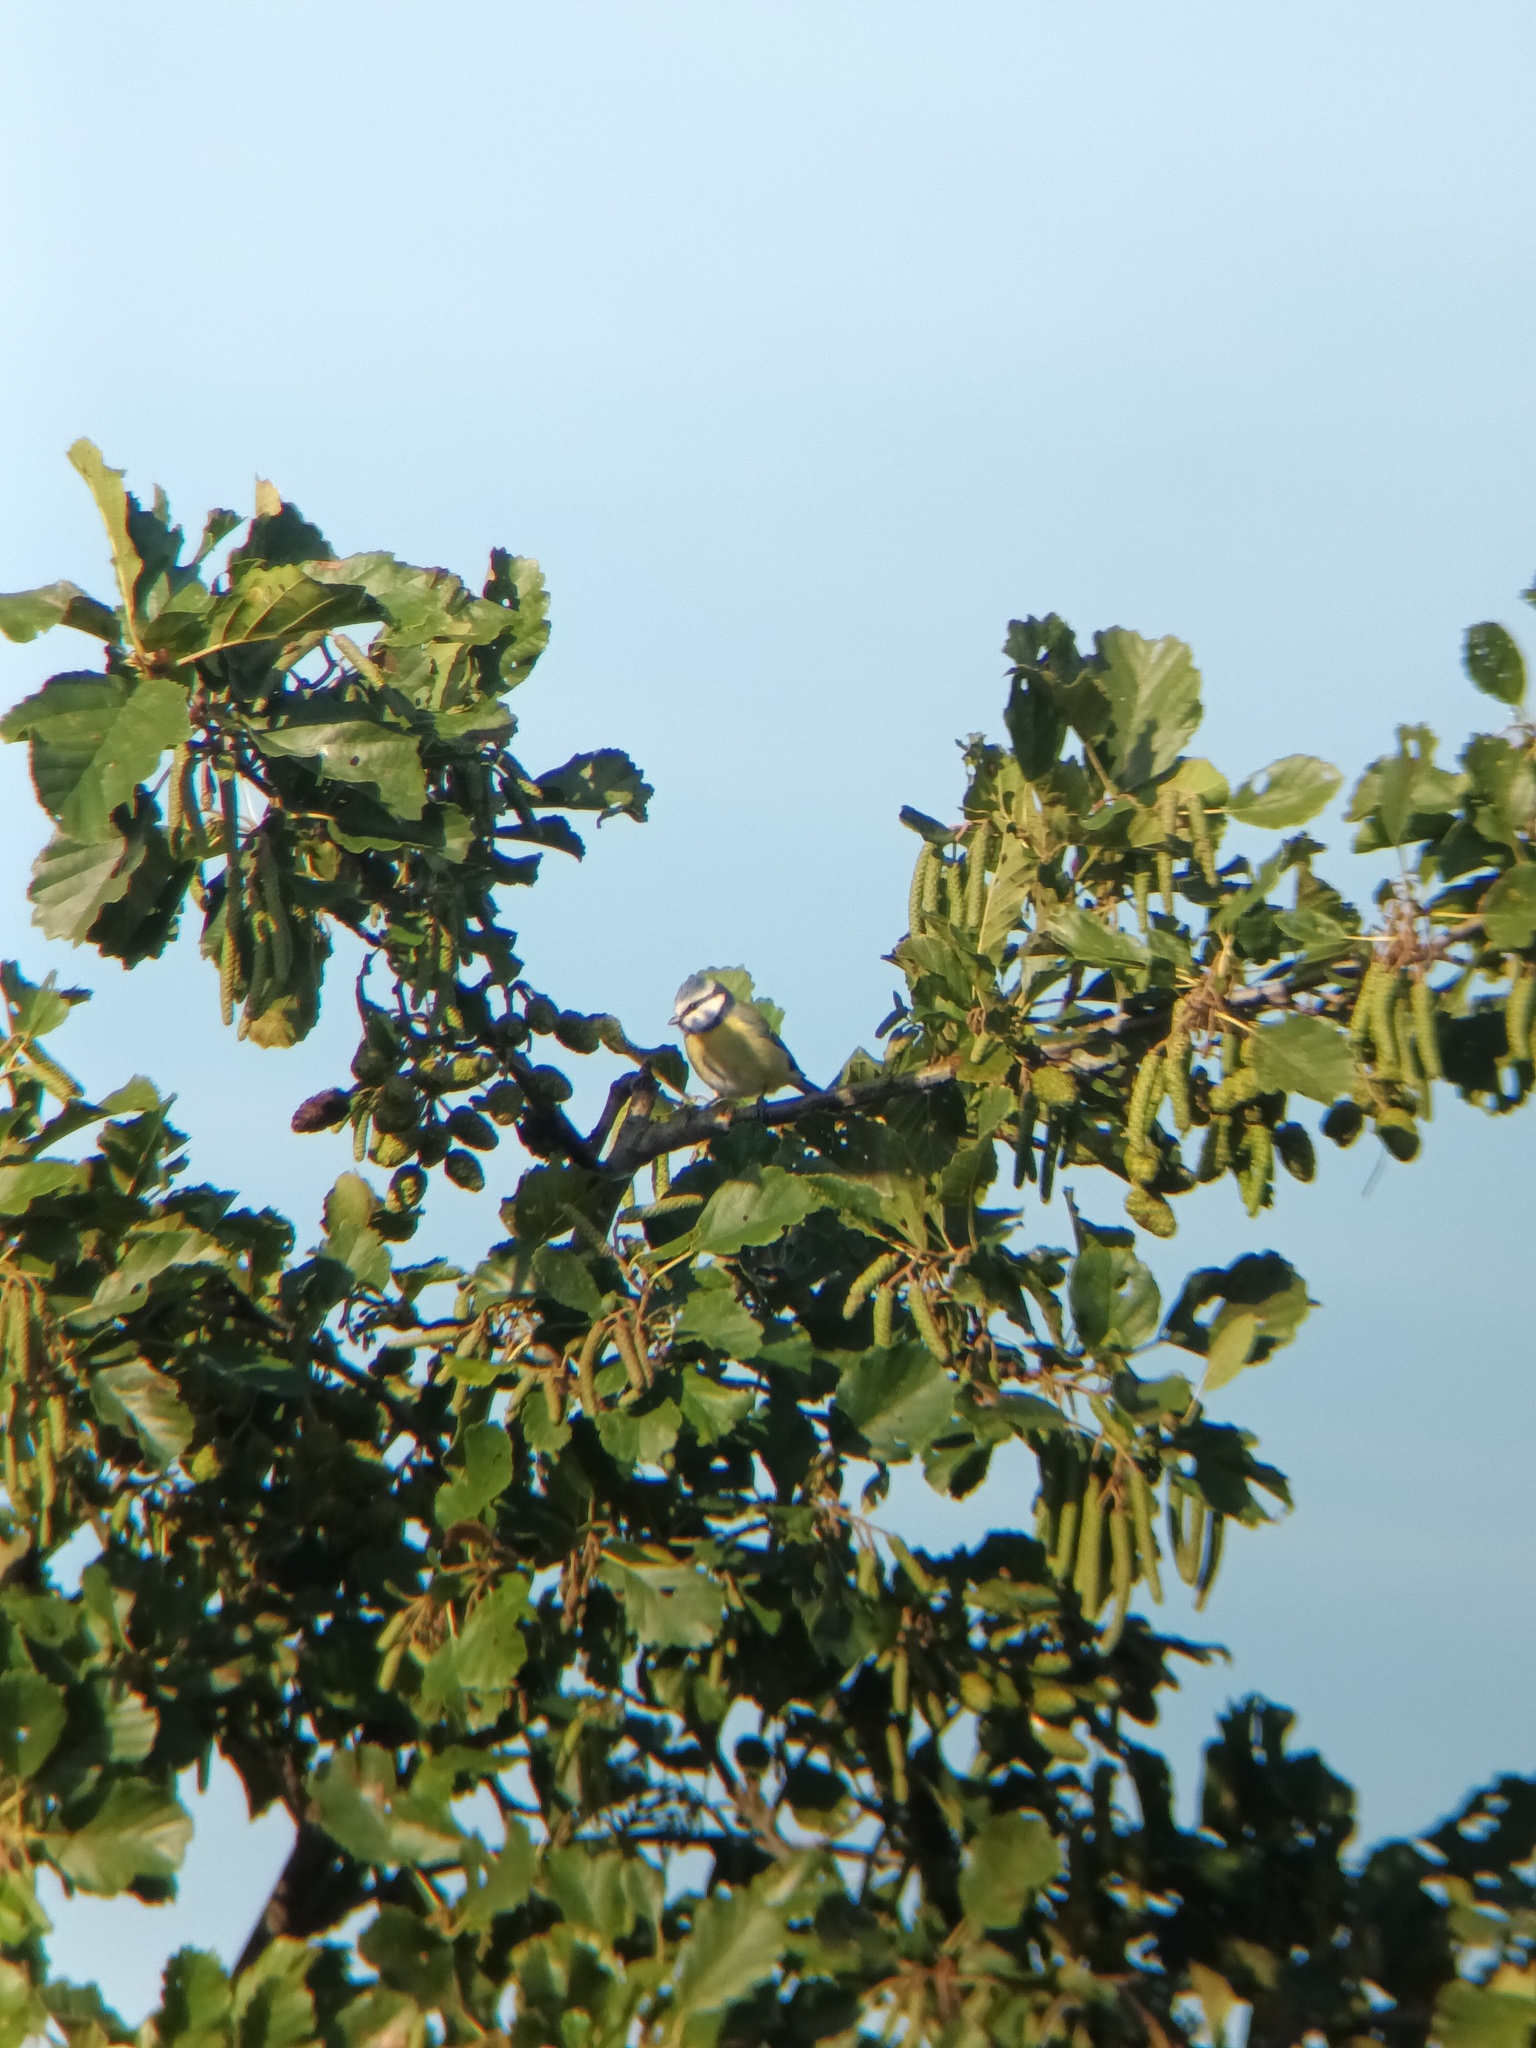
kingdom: Animalia
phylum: Chordata
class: Aves
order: Passeriformes
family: Paridae
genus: Cyanistes
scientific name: Cyanistes caeruleus
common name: Eurasian blue tit
